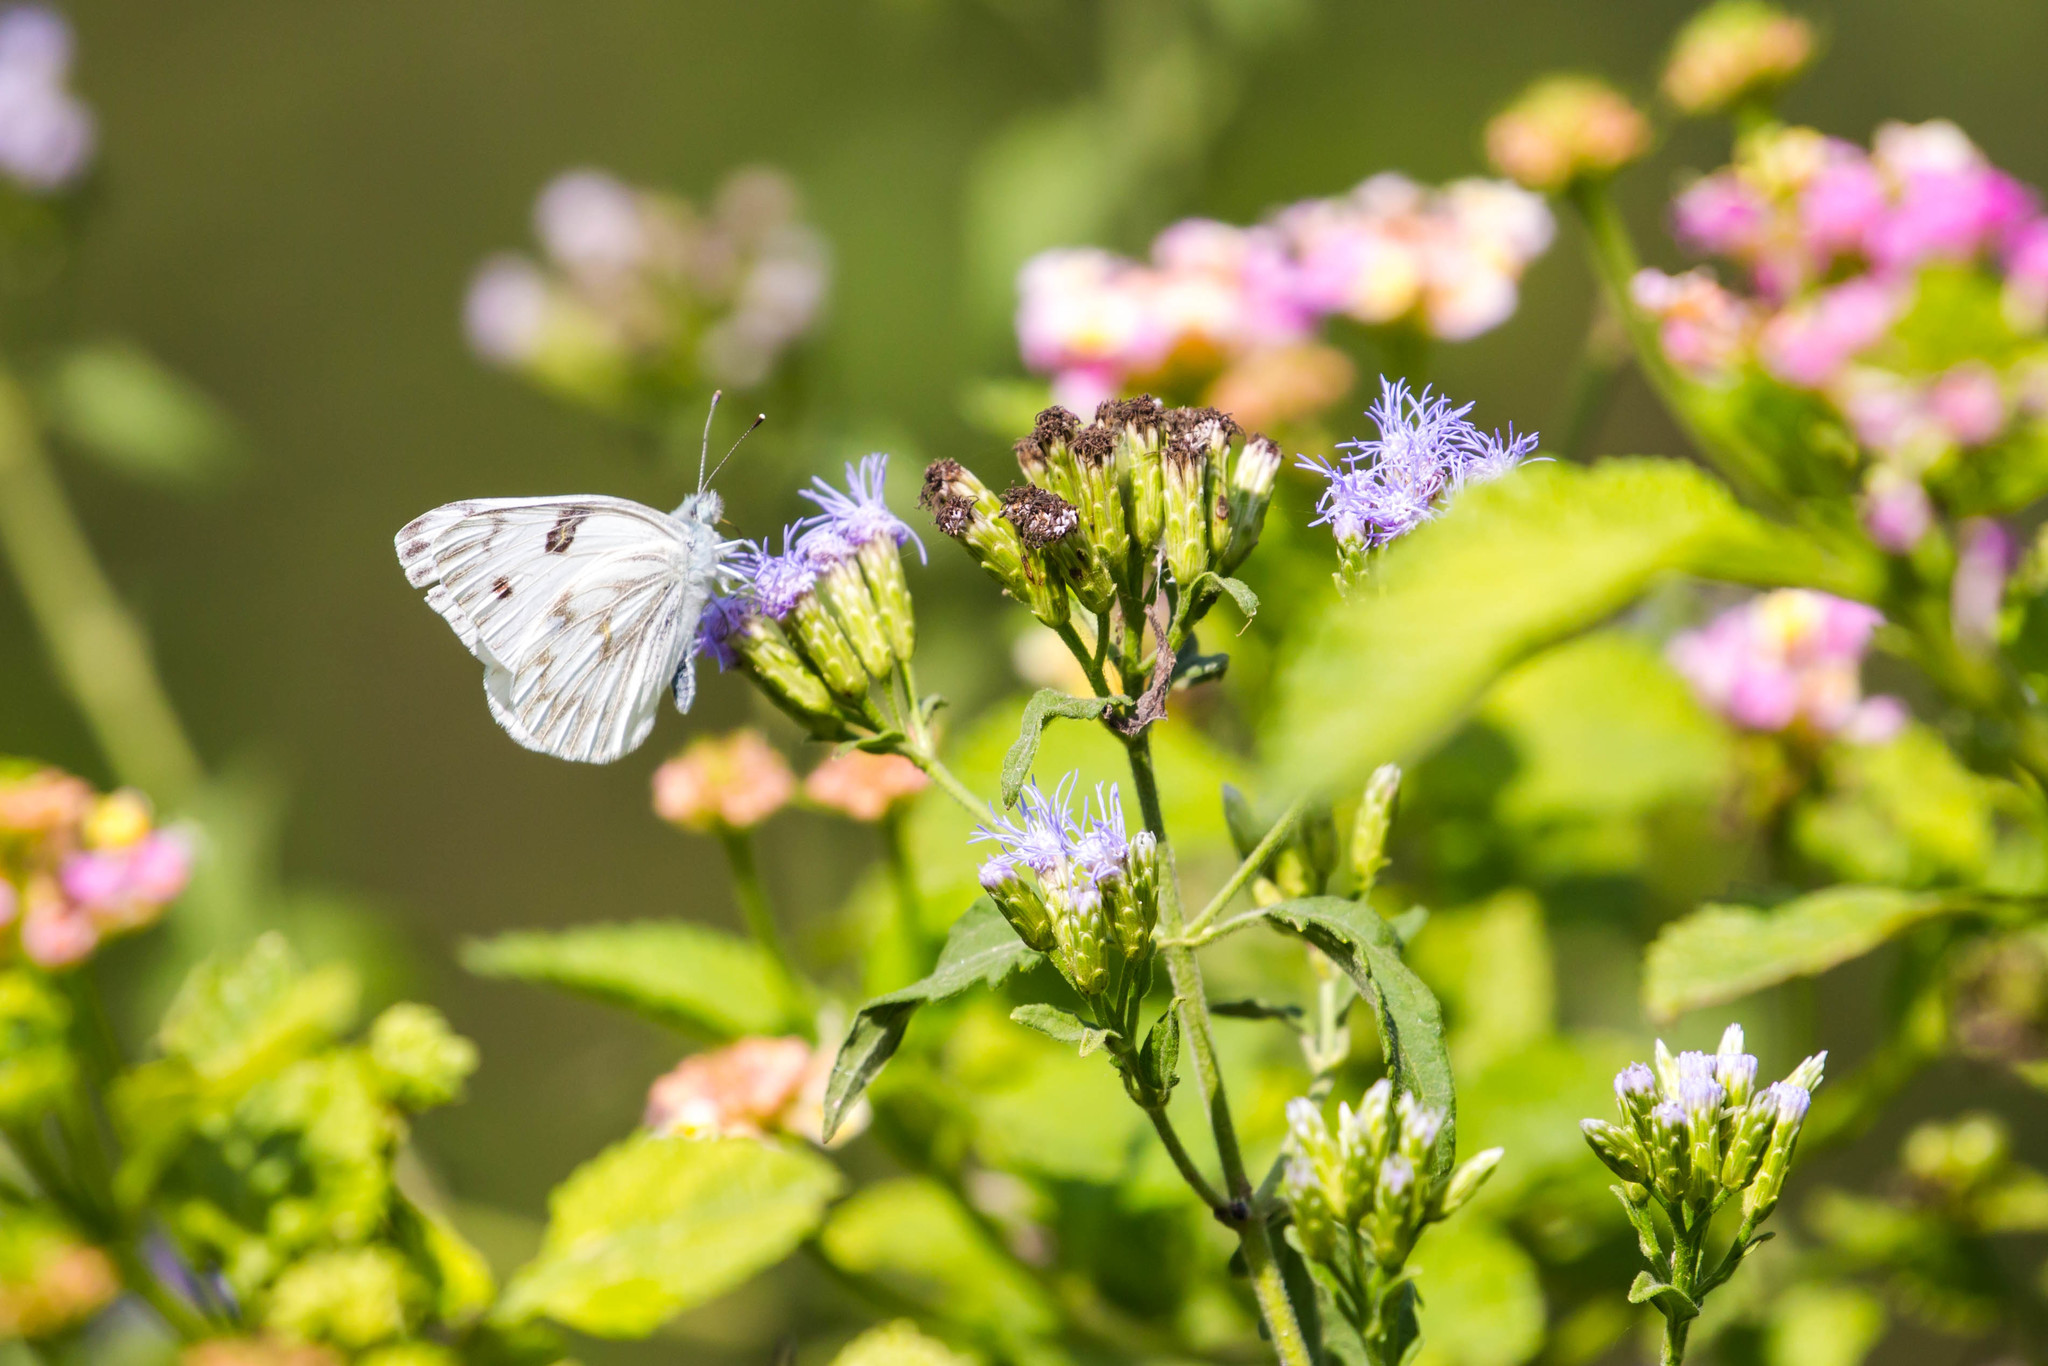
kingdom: Animalia
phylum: Arthropoda
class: Insecta
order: Lepidoptera
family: Pieridae
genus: Pontia
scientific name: Pontia protodice
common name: Checkered white
